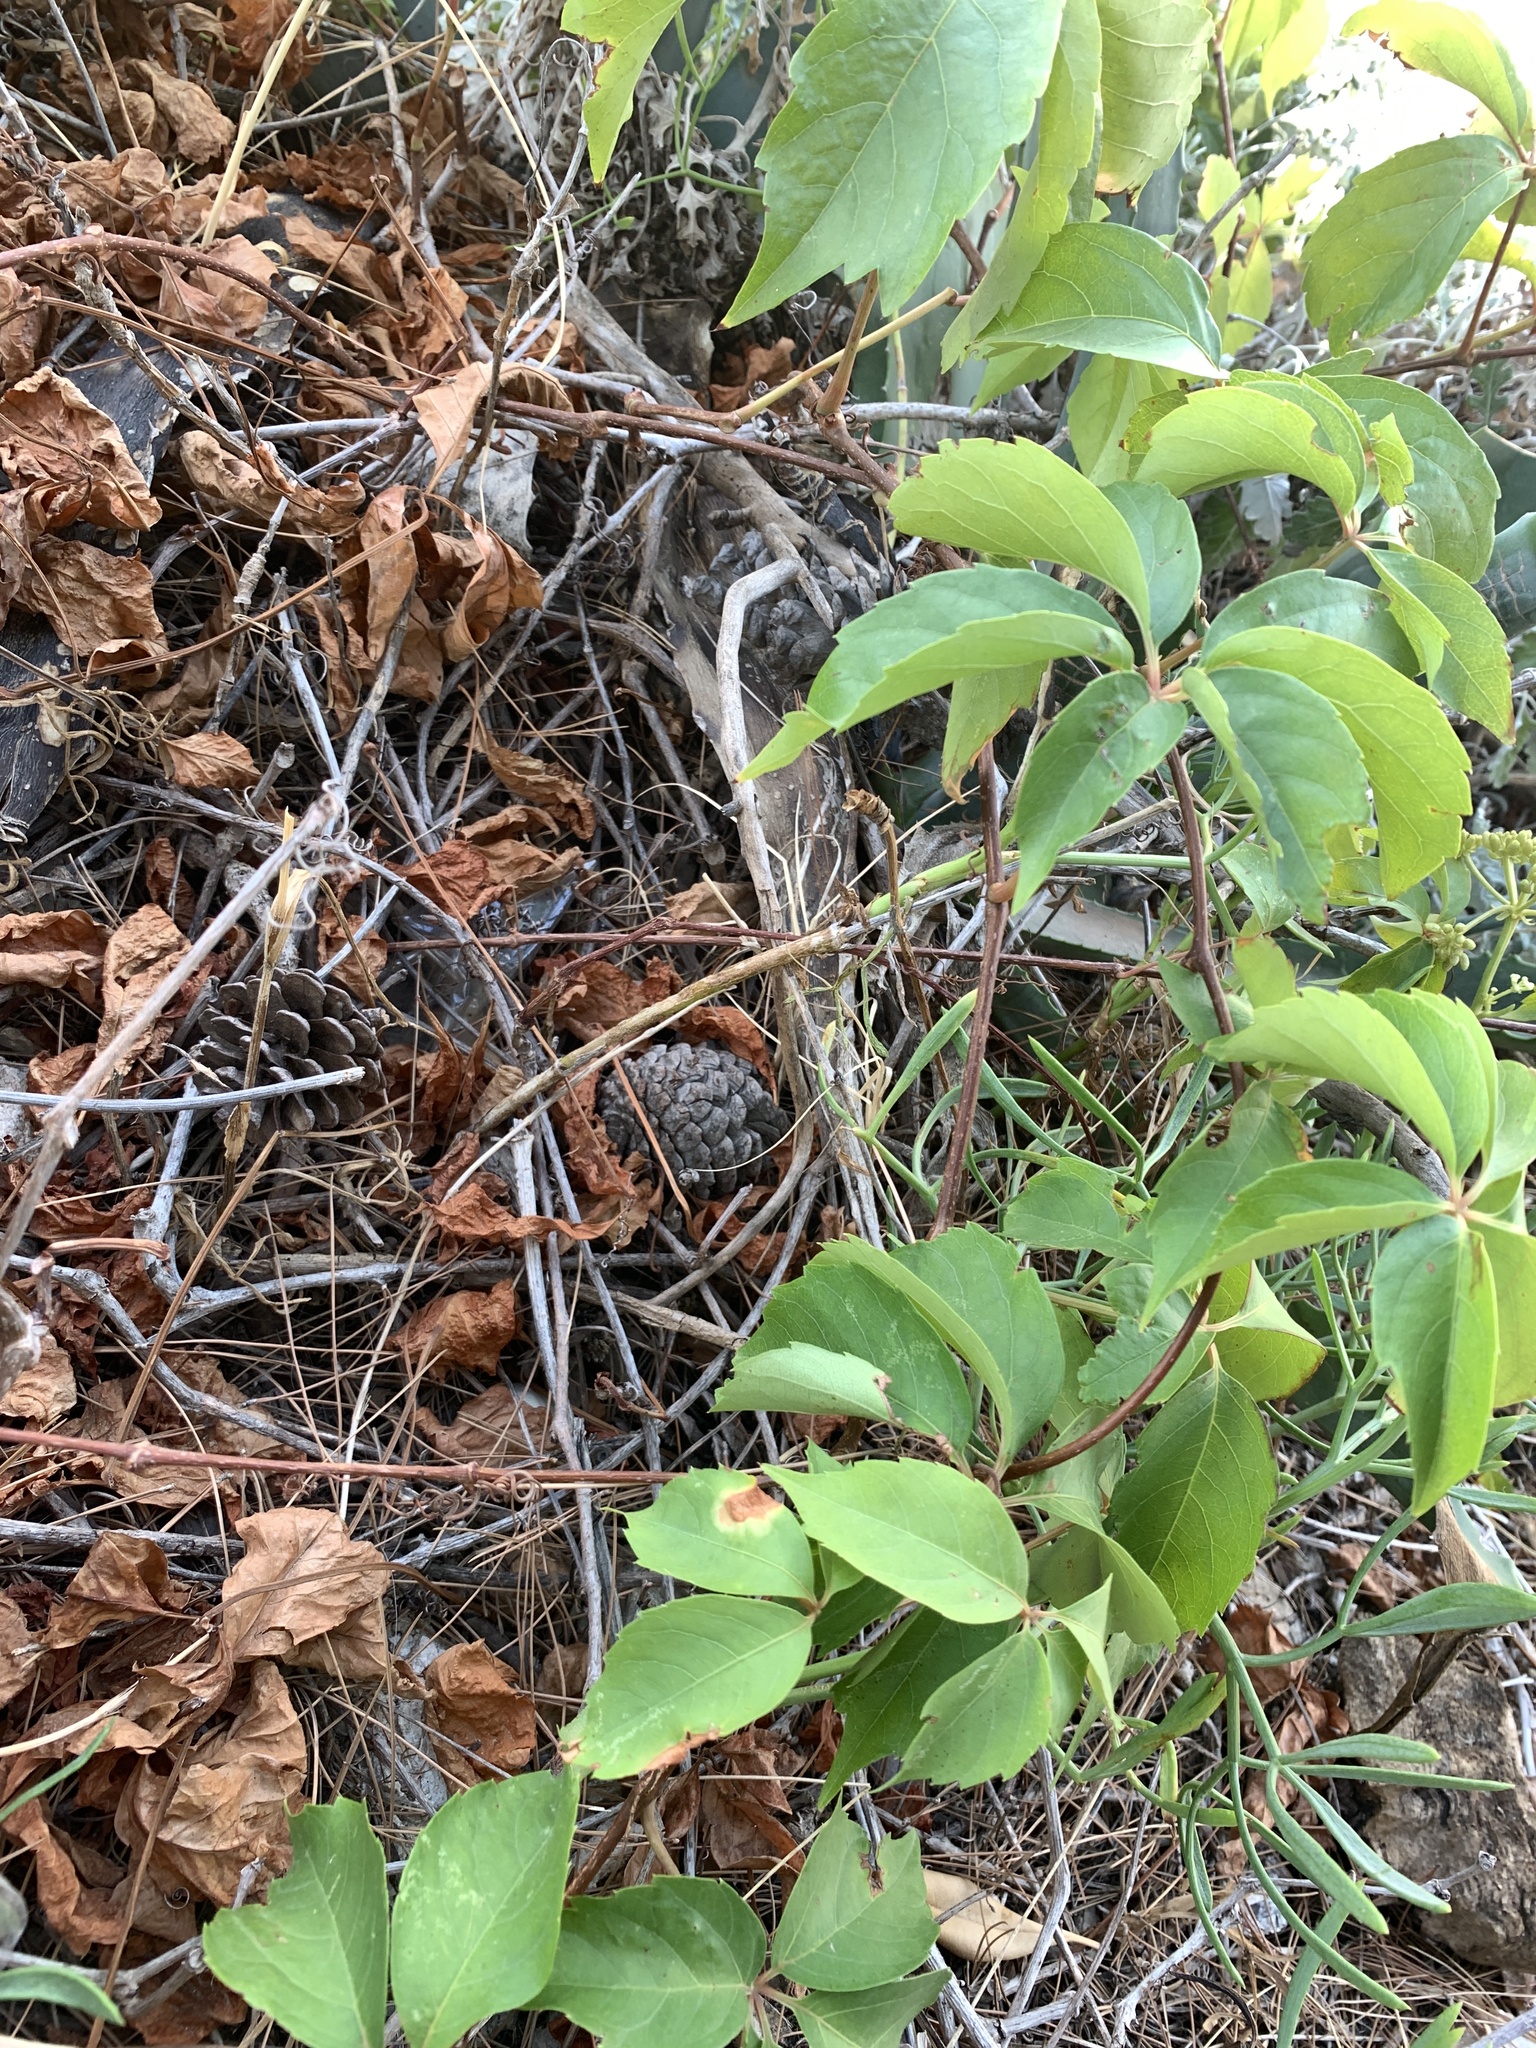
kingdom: Plantae
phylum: Tracheophyta
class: Magnoliopsida
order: Vitales
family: Vitaceae
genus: Parthenocissus
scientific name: Parthenocissus quinquefolia
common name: Virginia-creeper
